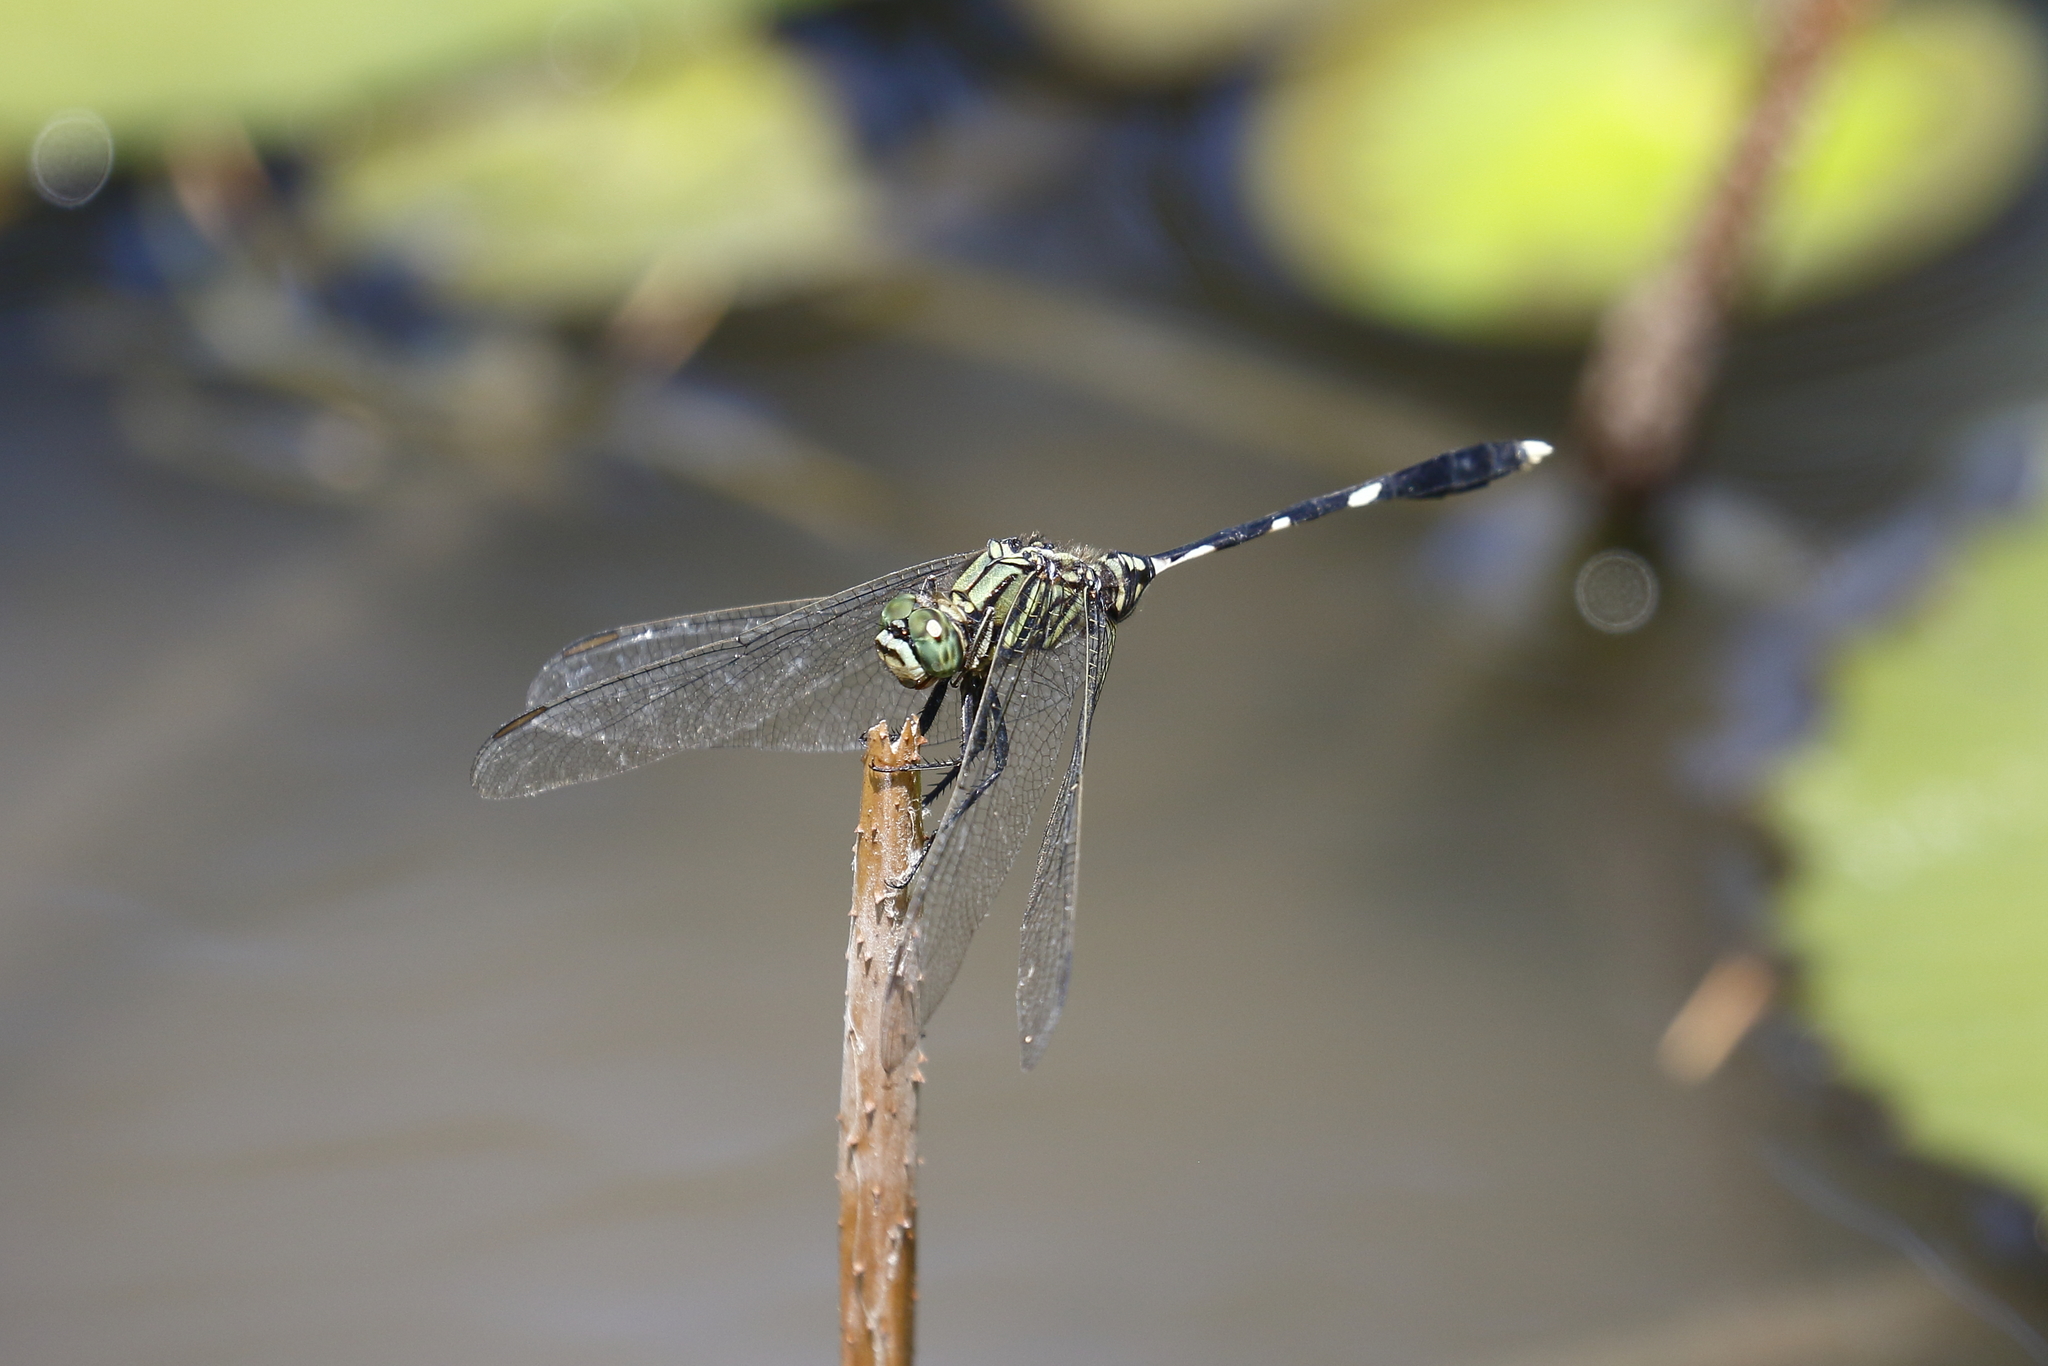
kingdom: Animalia
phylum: Arthropoda
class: Insecta
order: Odonata
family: Libellulidae
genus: Orthetrum
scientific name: Orthetrum sabina
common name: Slender skimmer
